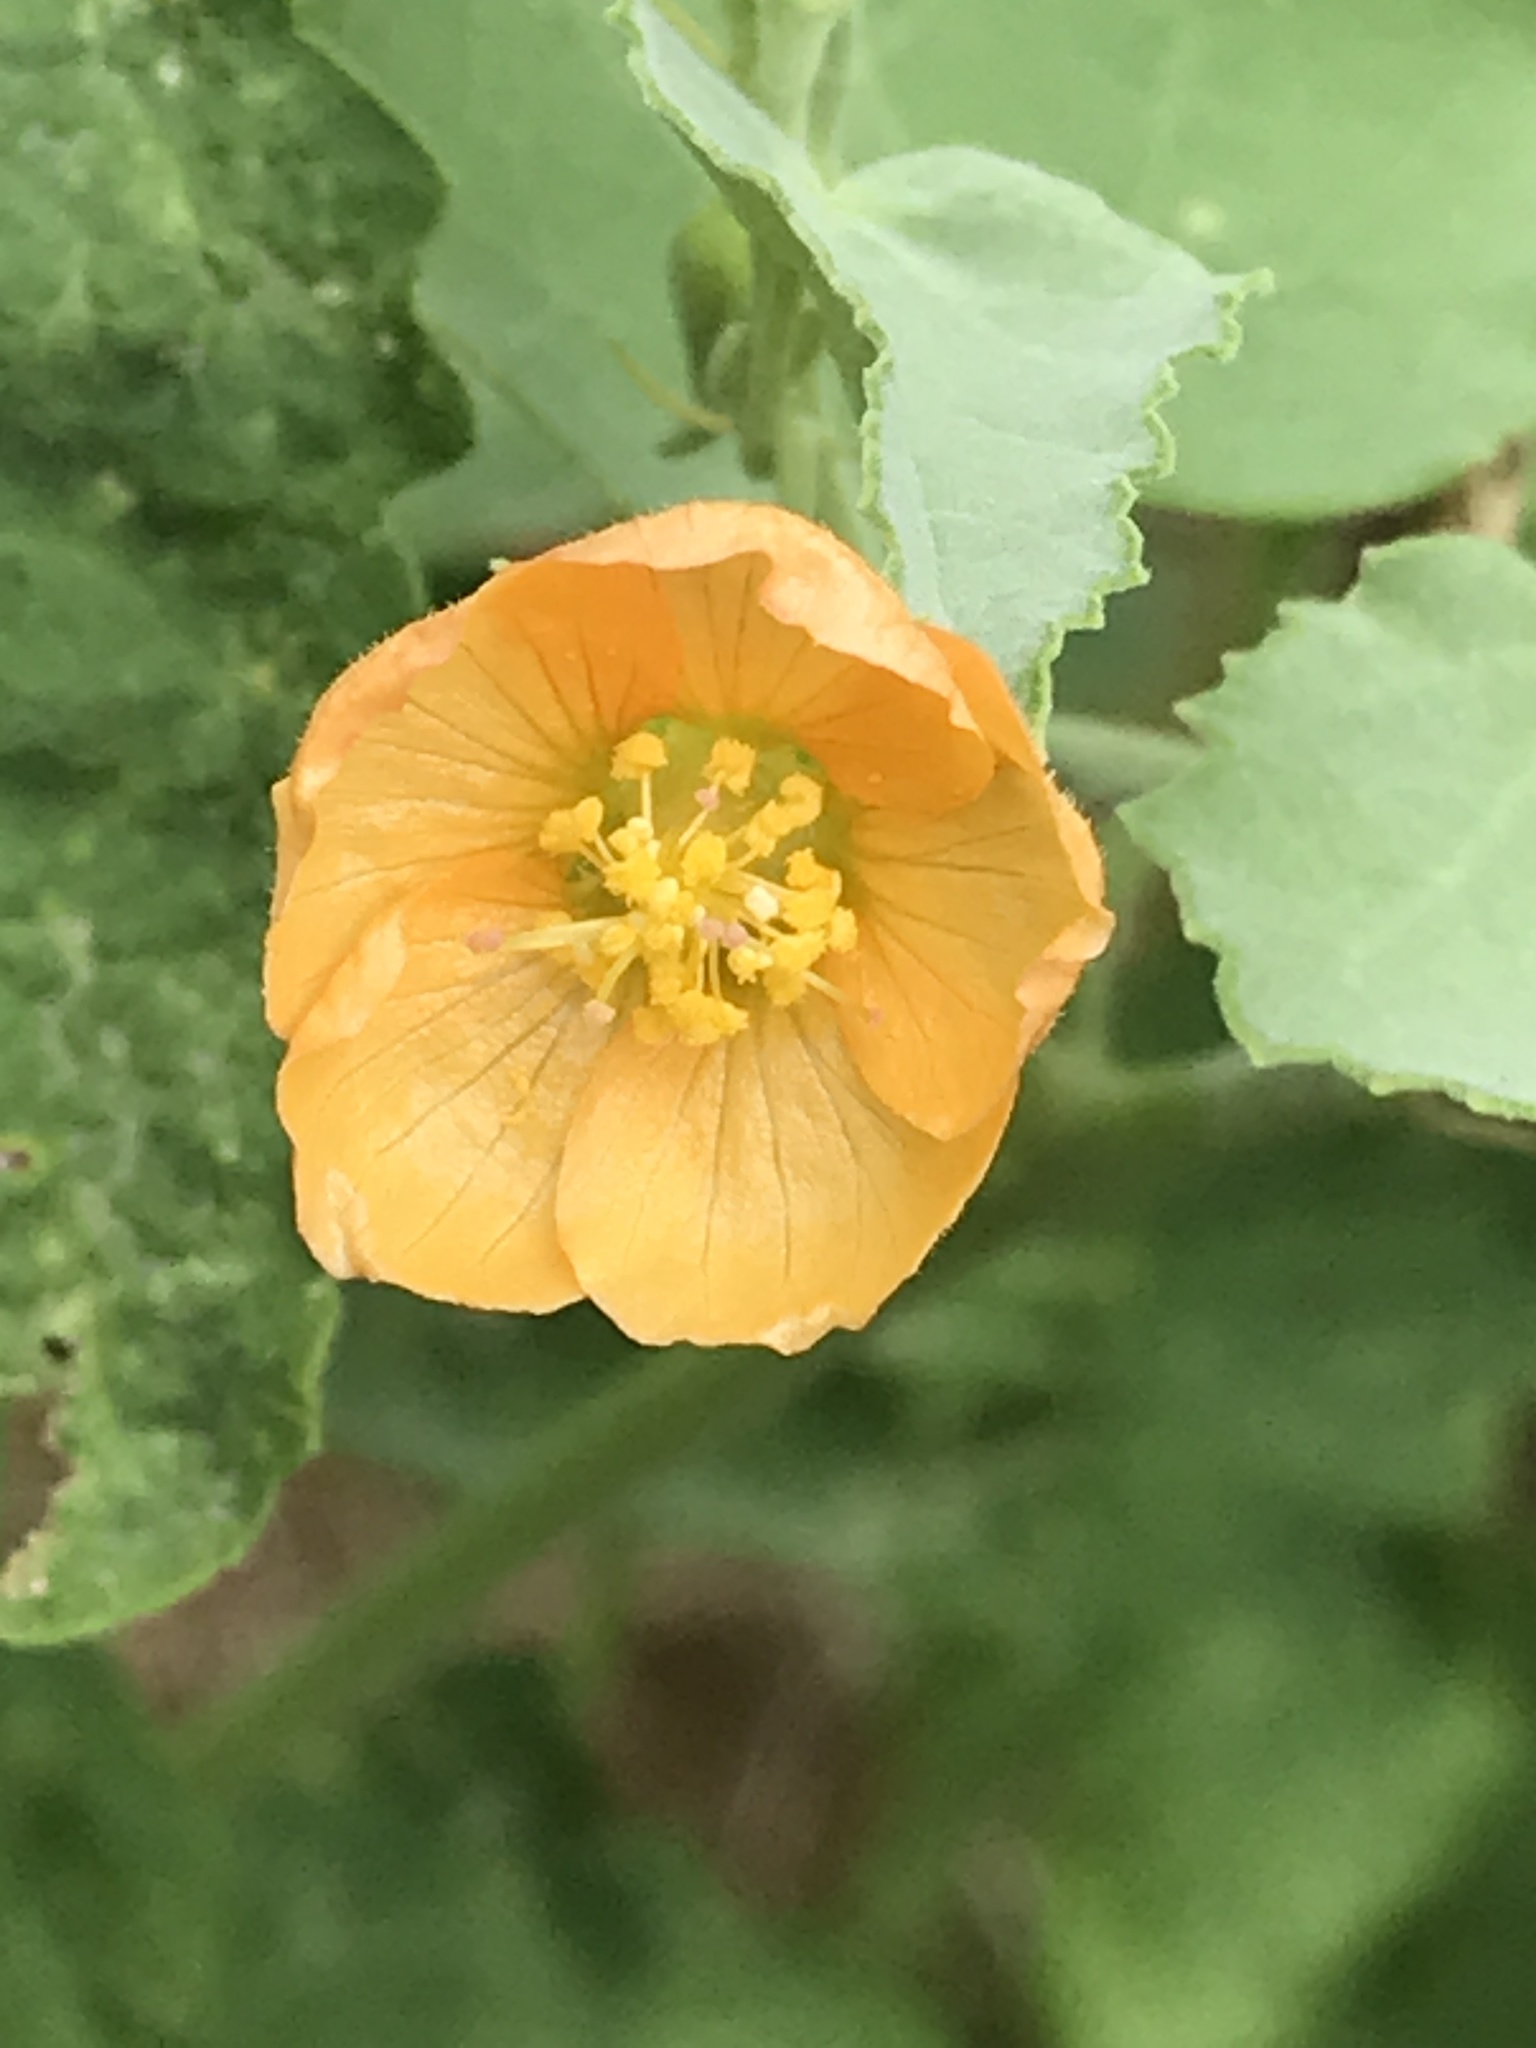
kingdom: Plantae
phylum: Tracheophyta
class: Magnoliopsida
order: Malvales
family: Malvaceae
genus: Abutilon
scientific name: Abutilon fruticosum
